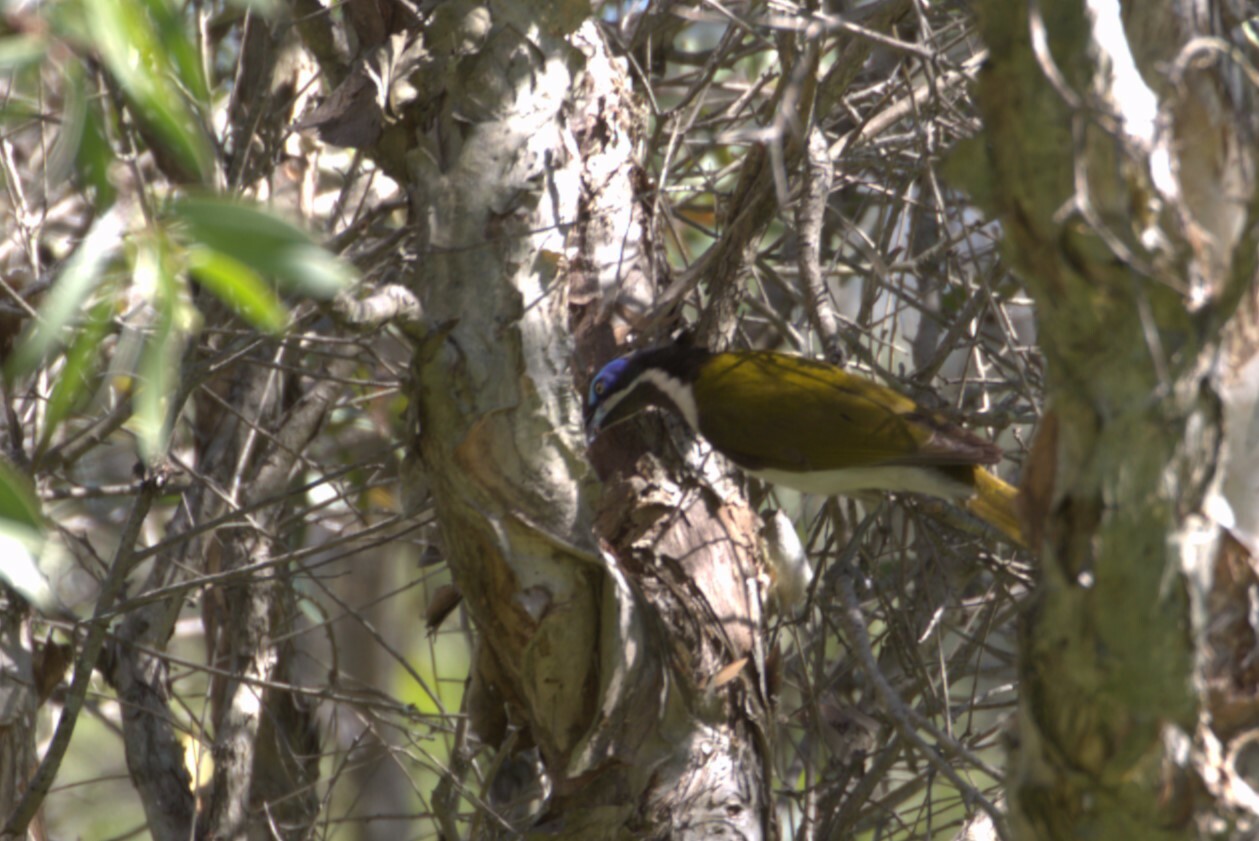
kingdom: Animalia
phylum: Chordata
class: Aves
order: Passeriformes
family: Meliphagidae
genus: Entomyzon
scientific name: Entomyzon cyanotis
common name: Blue-faced honeyeater
